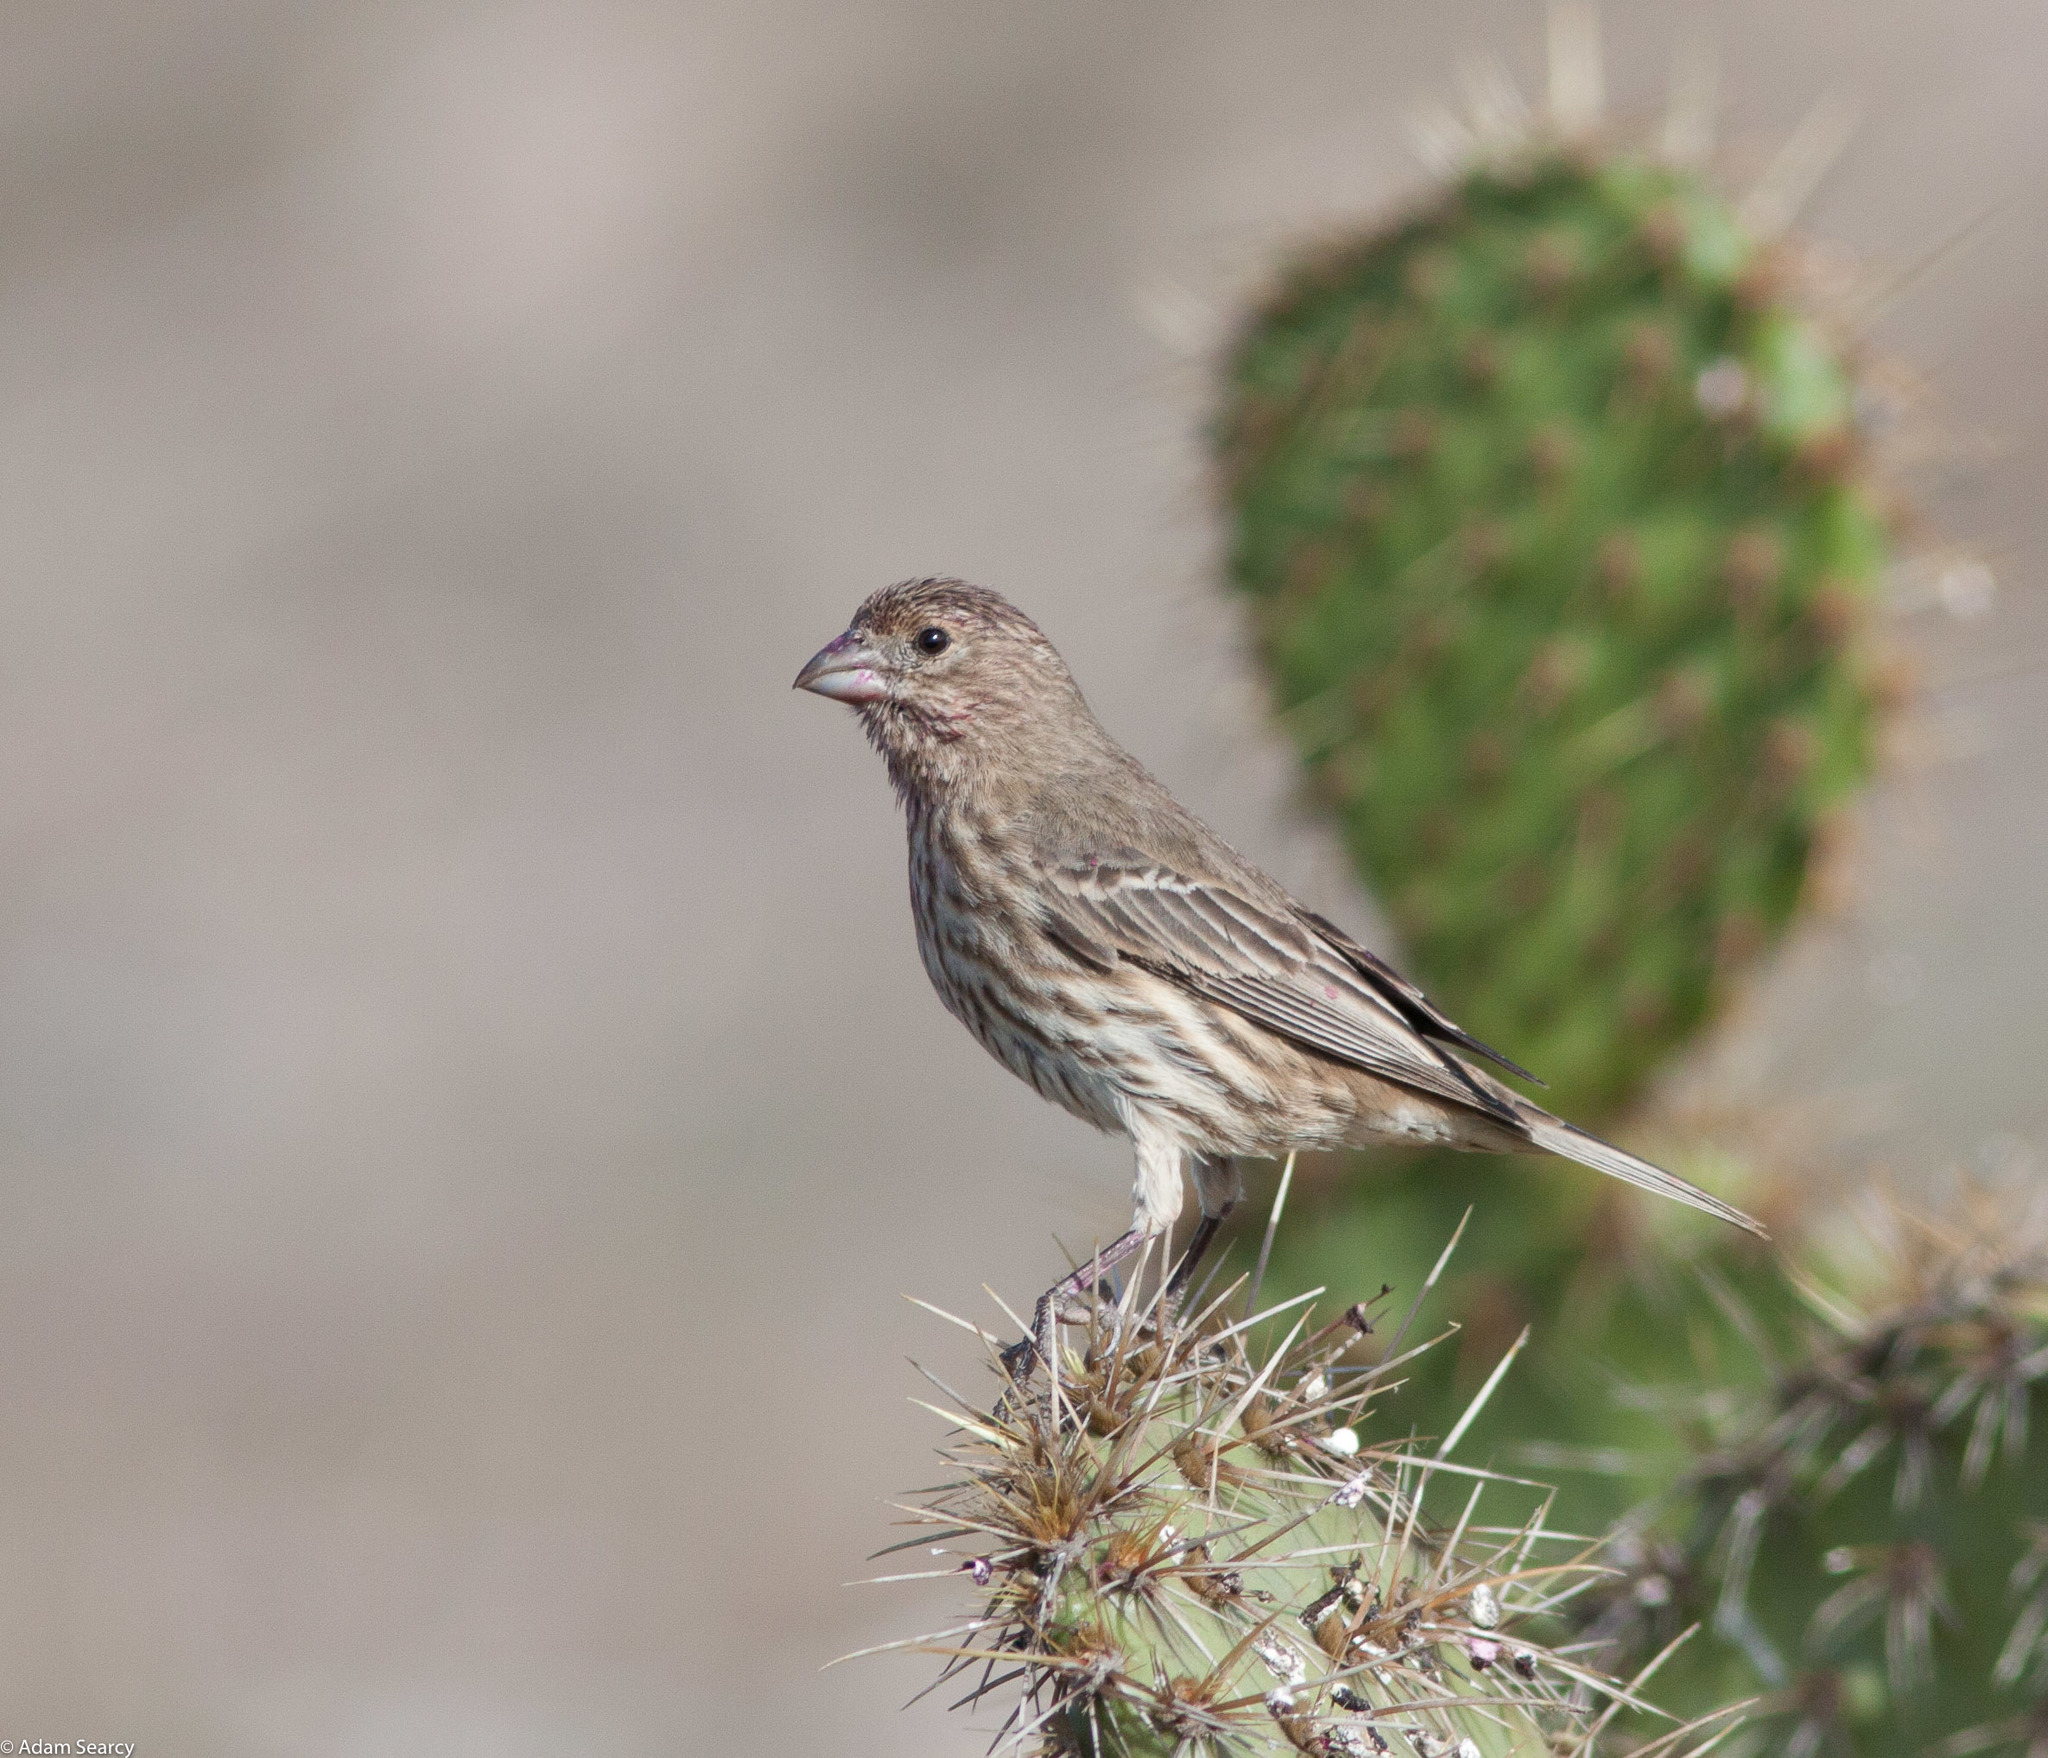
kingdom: Animalia
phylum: Chordata
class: Aves
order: Passeriformes
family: Fringillidae
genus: Haemorhous
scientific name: Haemorhous mexicanus
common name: House finch
